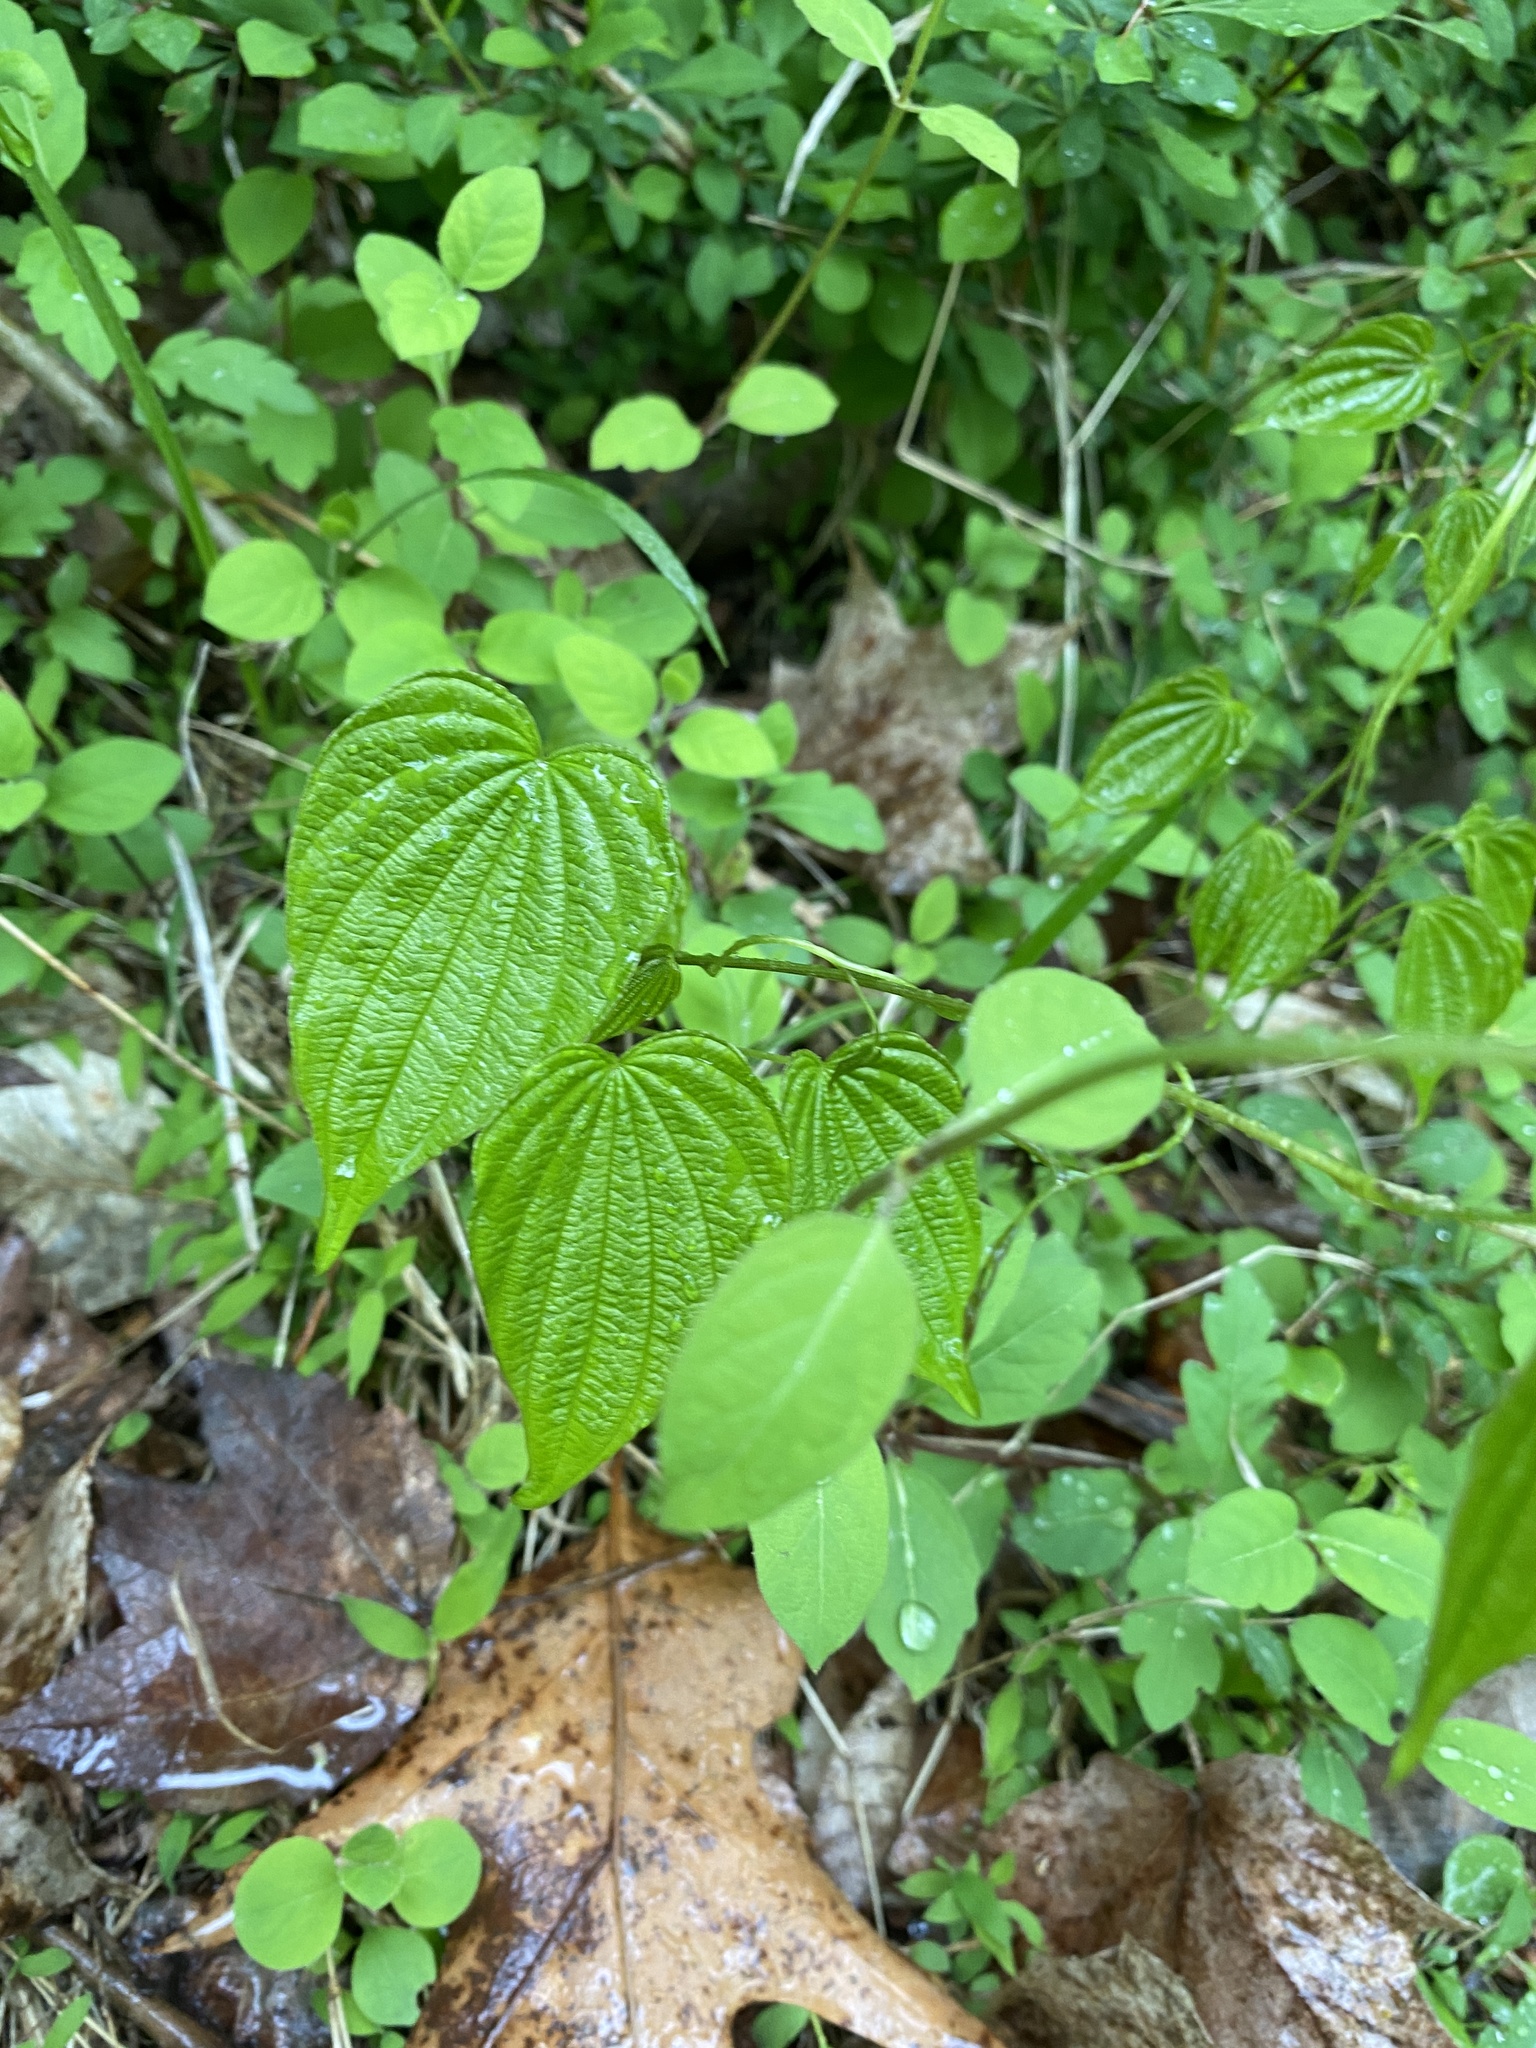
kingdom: Plantae
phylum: Tracheophyta
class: Liliopsida
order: Dioscoreales
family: Dioscoreaceae
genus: Dioscorea
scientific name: Dioscorea villosa
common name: Wild yam
